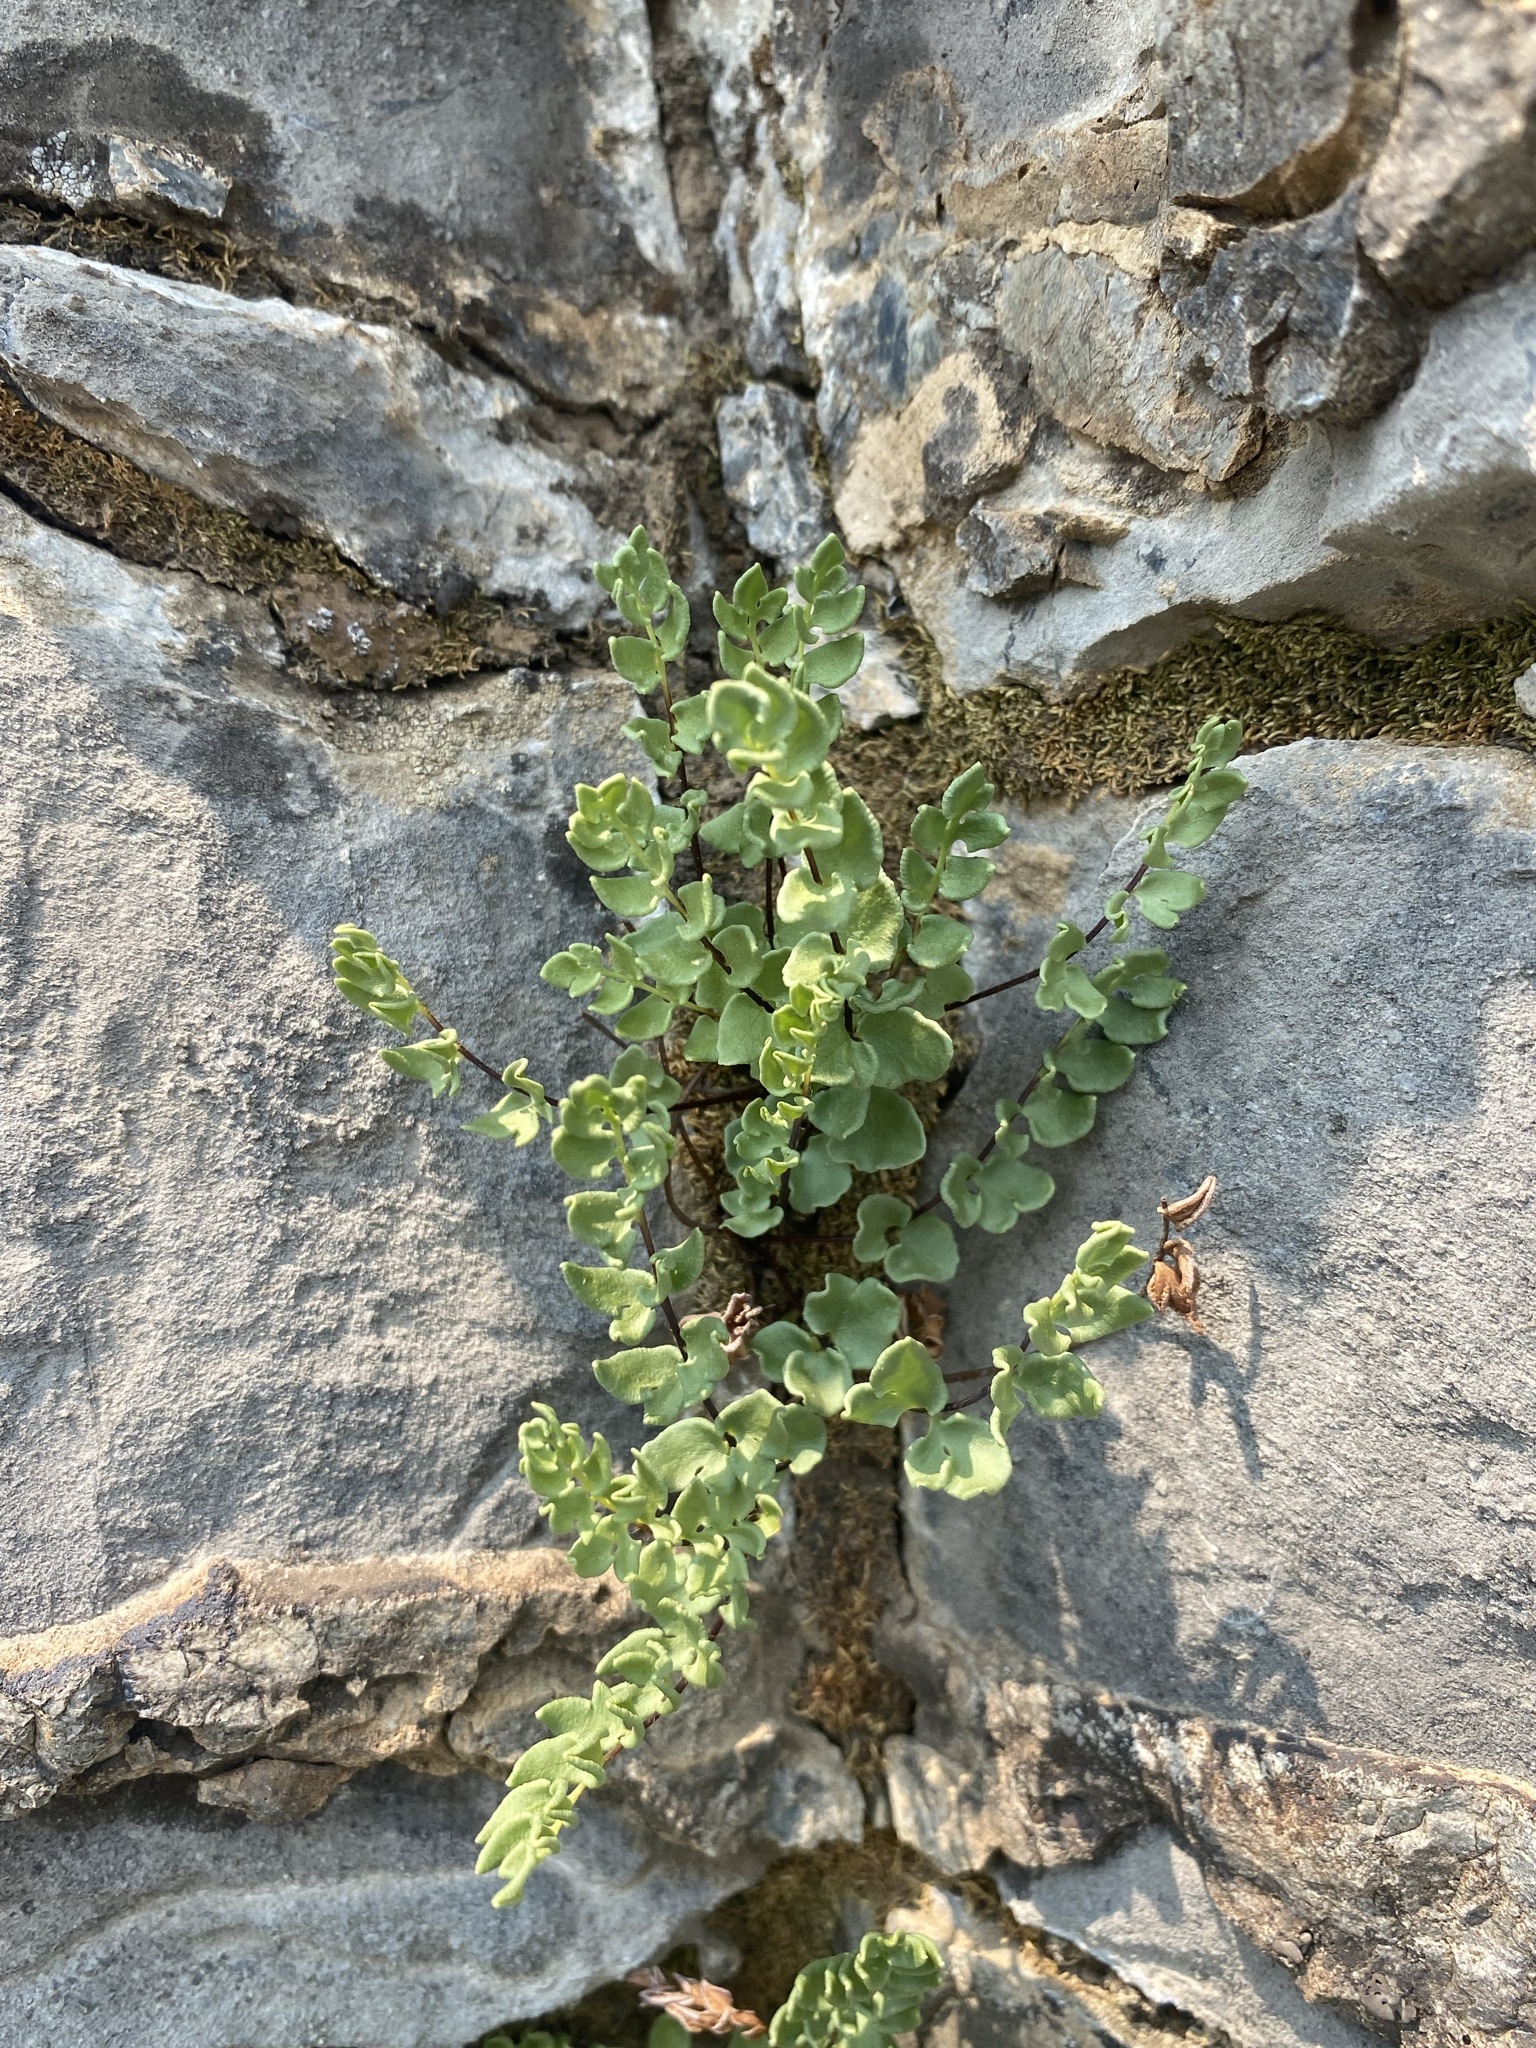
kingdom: Plantae
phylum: Tracheophyta
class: Polypodiopsida
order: Polypodiales
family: Pteridaceae
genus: Pellaea
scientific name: Pellaea breweri
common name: Brewer's cliffbrake
